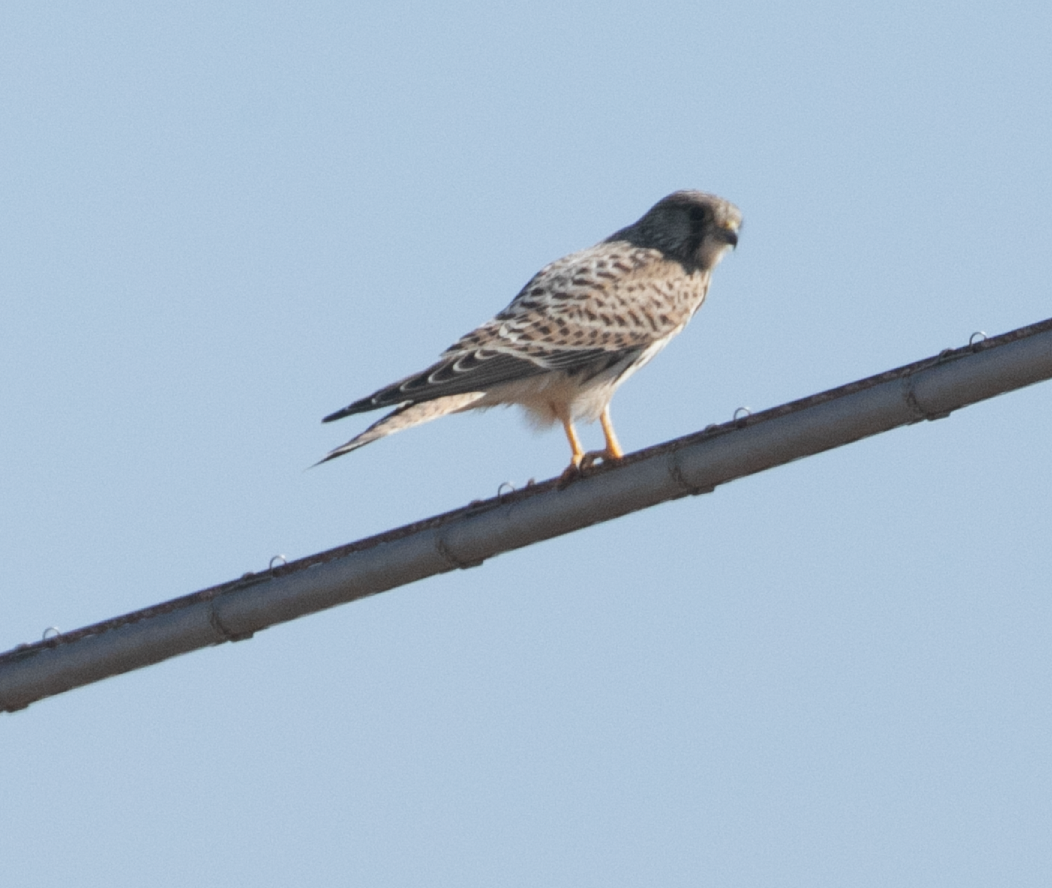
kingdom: Animalia
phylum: Chordata
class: Aves
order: Falconiformes
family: Falconidae
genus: Falco
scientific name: Falco tinnunculus
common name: Common kestrel
